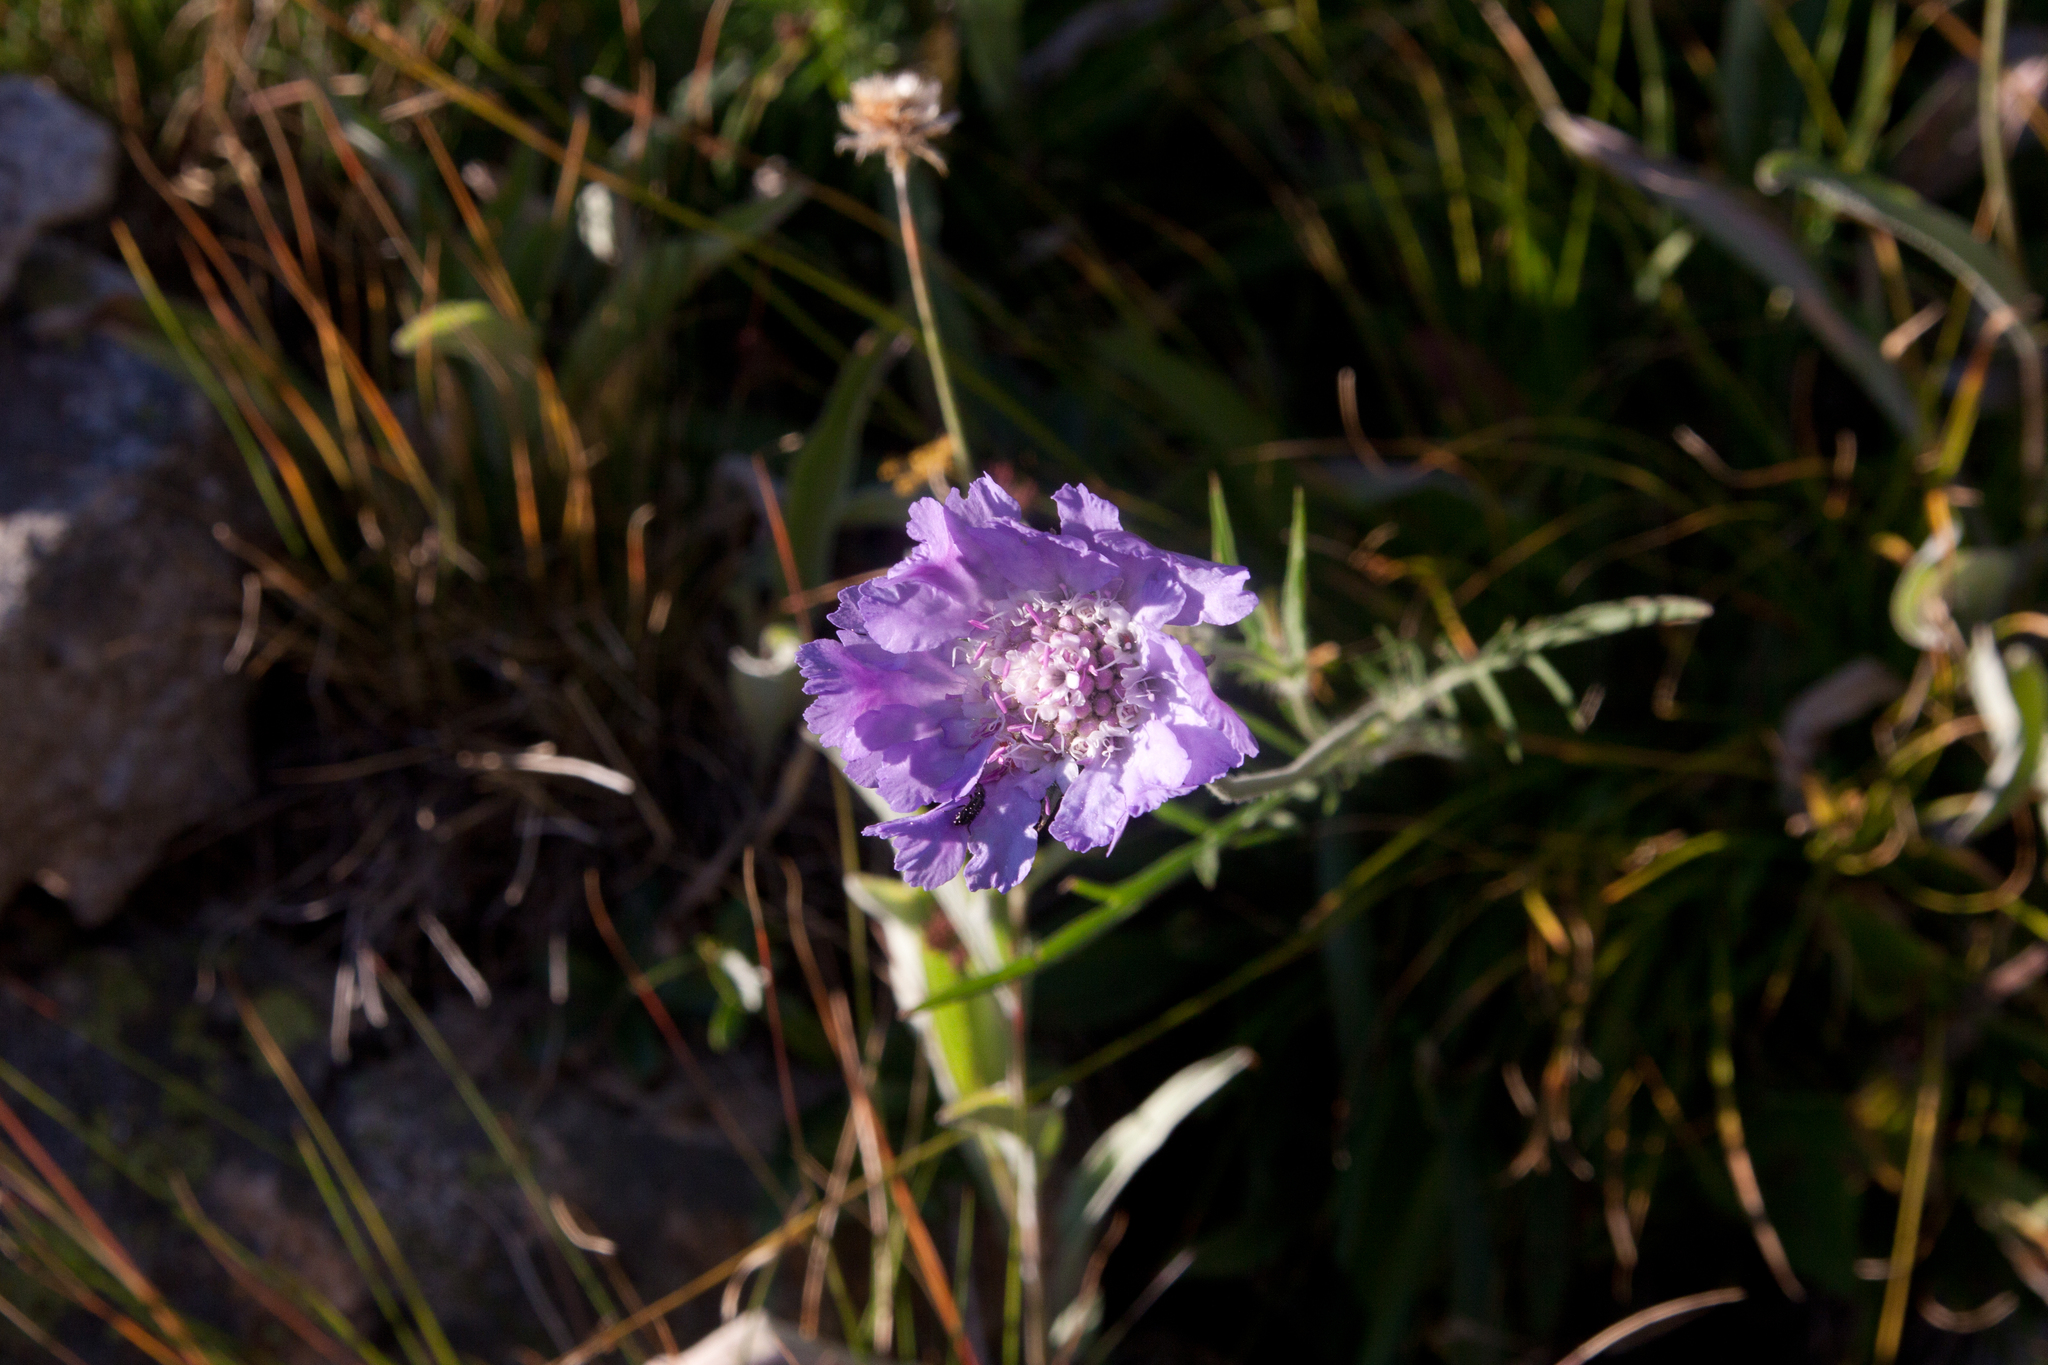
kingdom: Plantae
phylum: Tracheophyta
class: Magnoliopsida
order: Dipsacales
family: Caprifoliaceae
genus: Lomelosia
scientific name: Lomelosia caucasica
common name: Pincushion-flower
